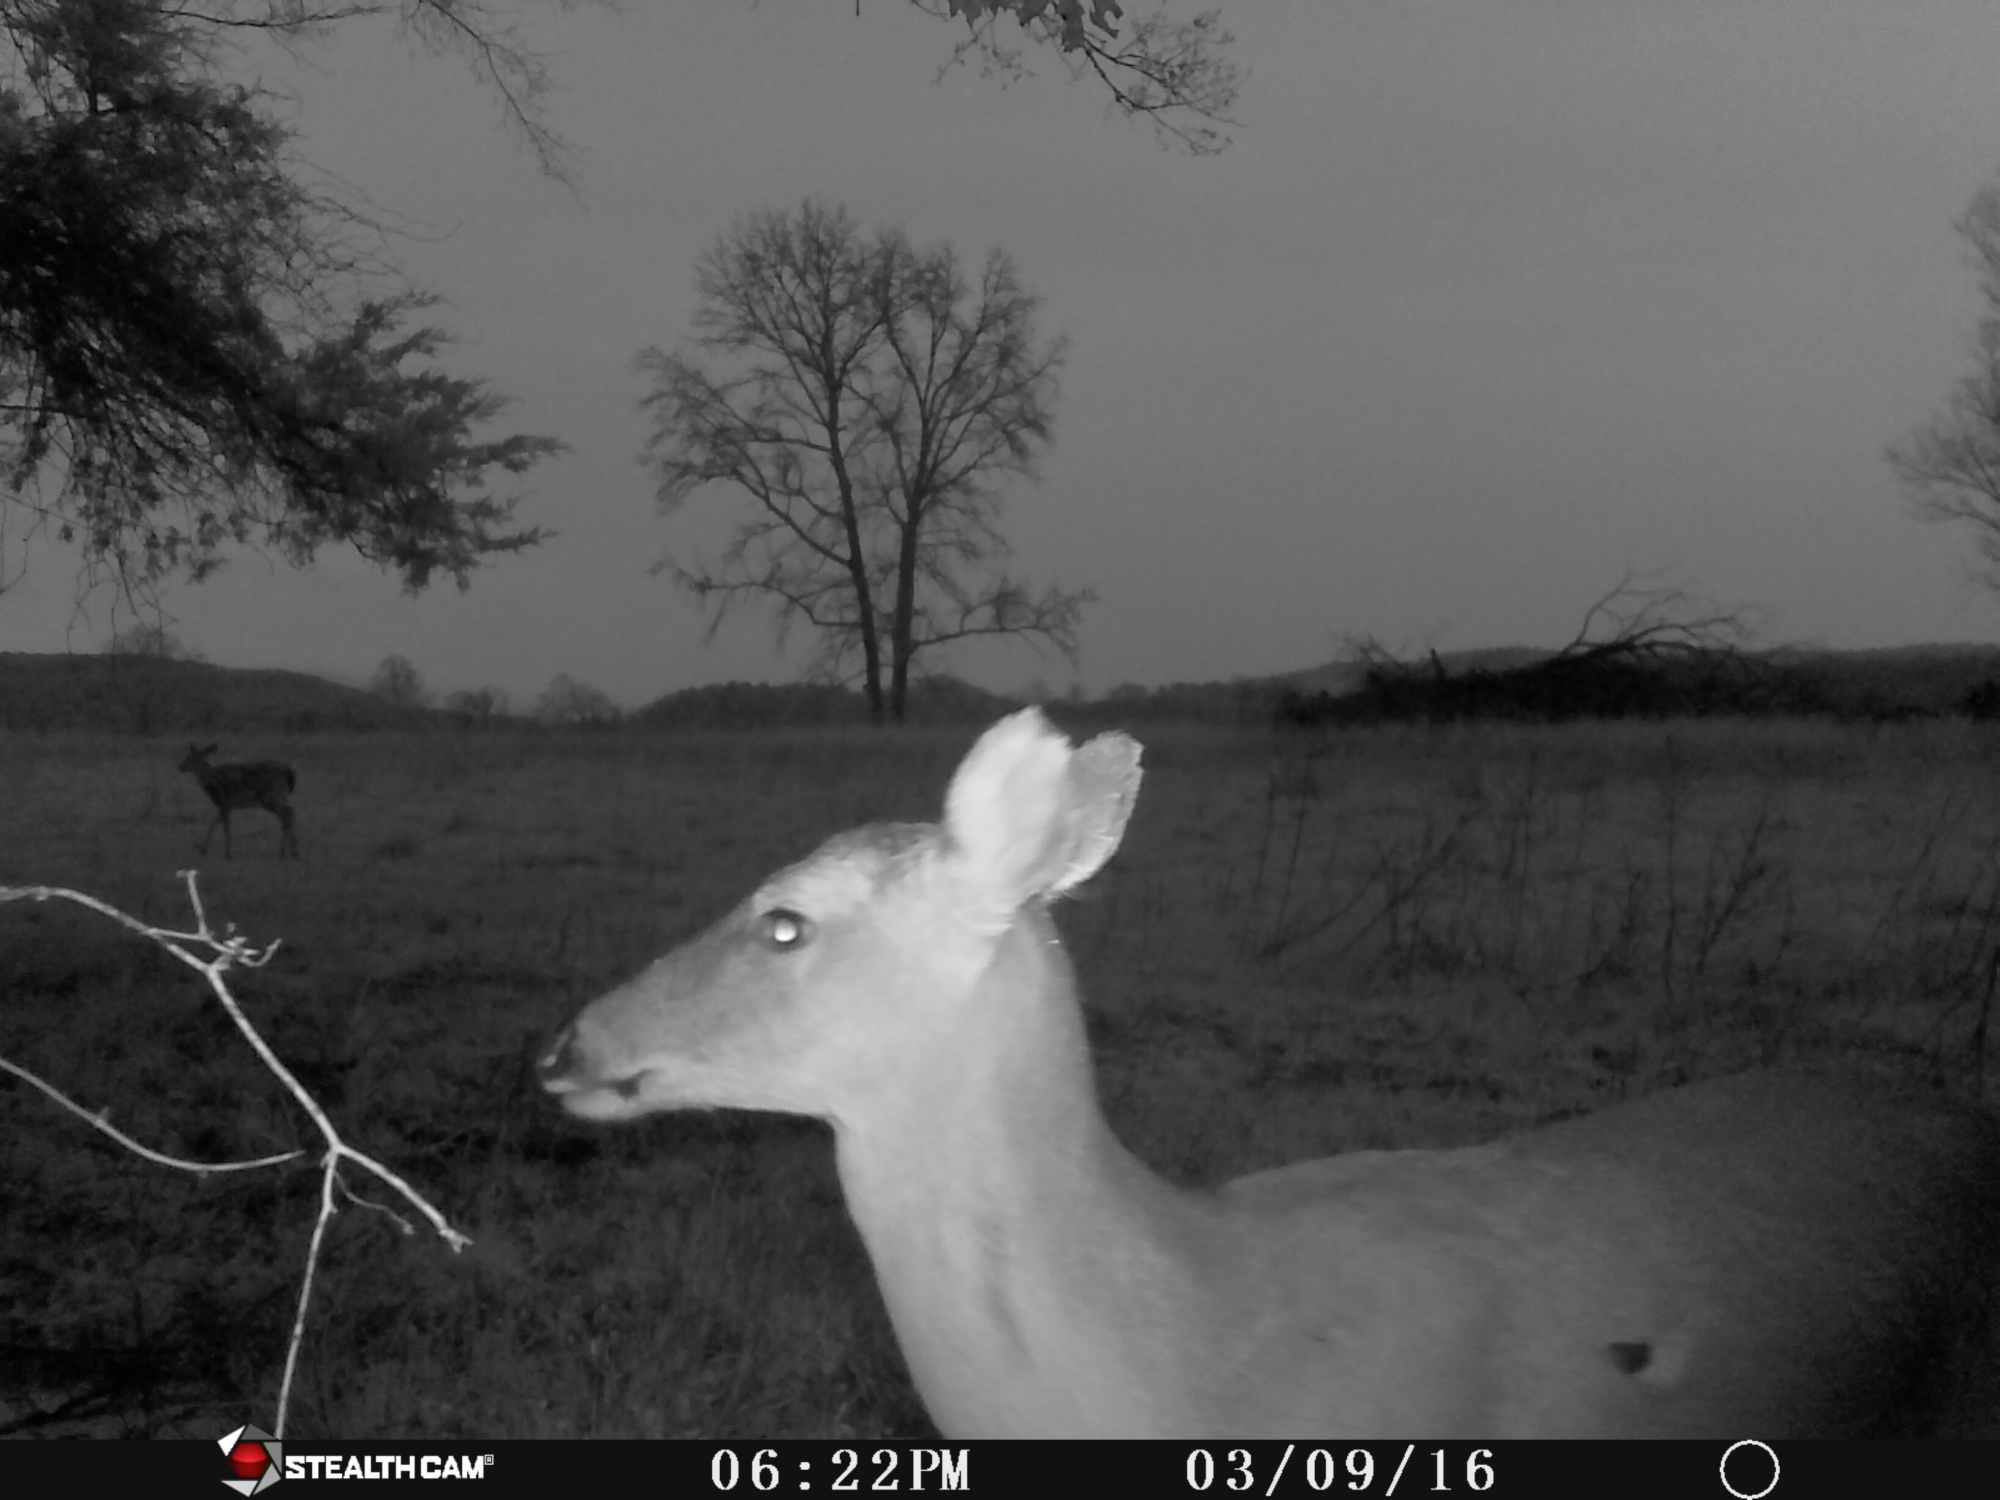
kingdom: Animalia
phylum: Chordata
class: Mammalia
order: Artiodactyla
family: Cervidae
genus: Odocoileus
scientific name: Odocoileus virginianus
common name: White-tailed deer
